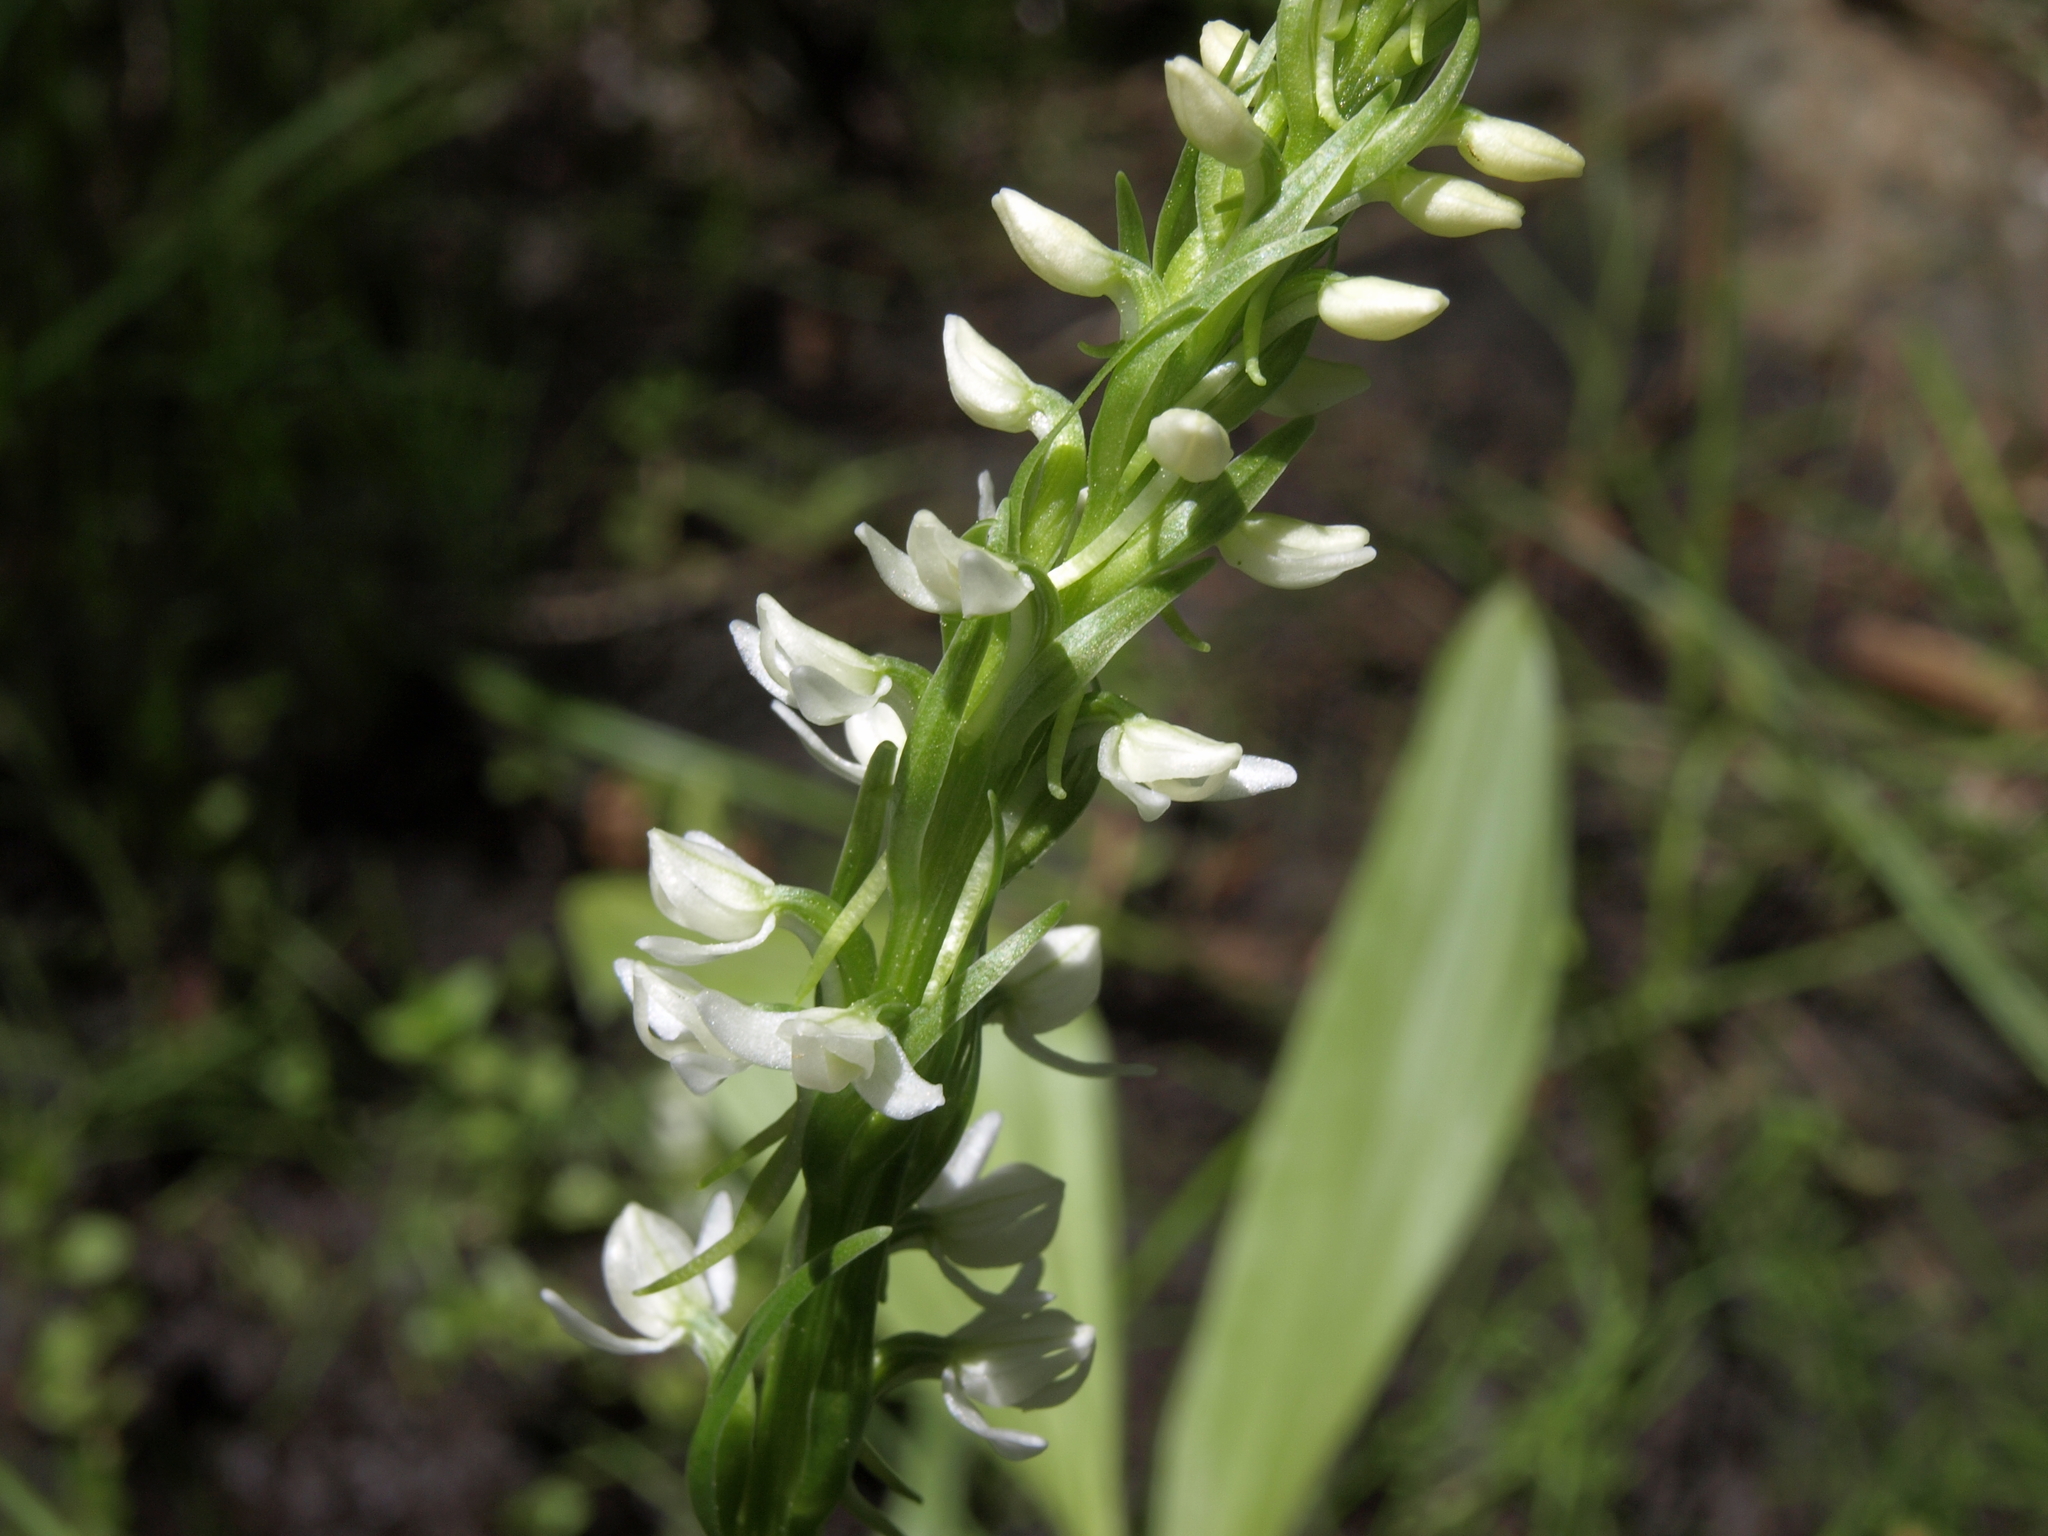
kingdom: Plantae
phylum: Tracheophyta
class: Liliopsida
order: Asparagales
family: Orchidaceae
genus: Platanthera
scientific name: Platanthera dilatata
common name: Bog candles
